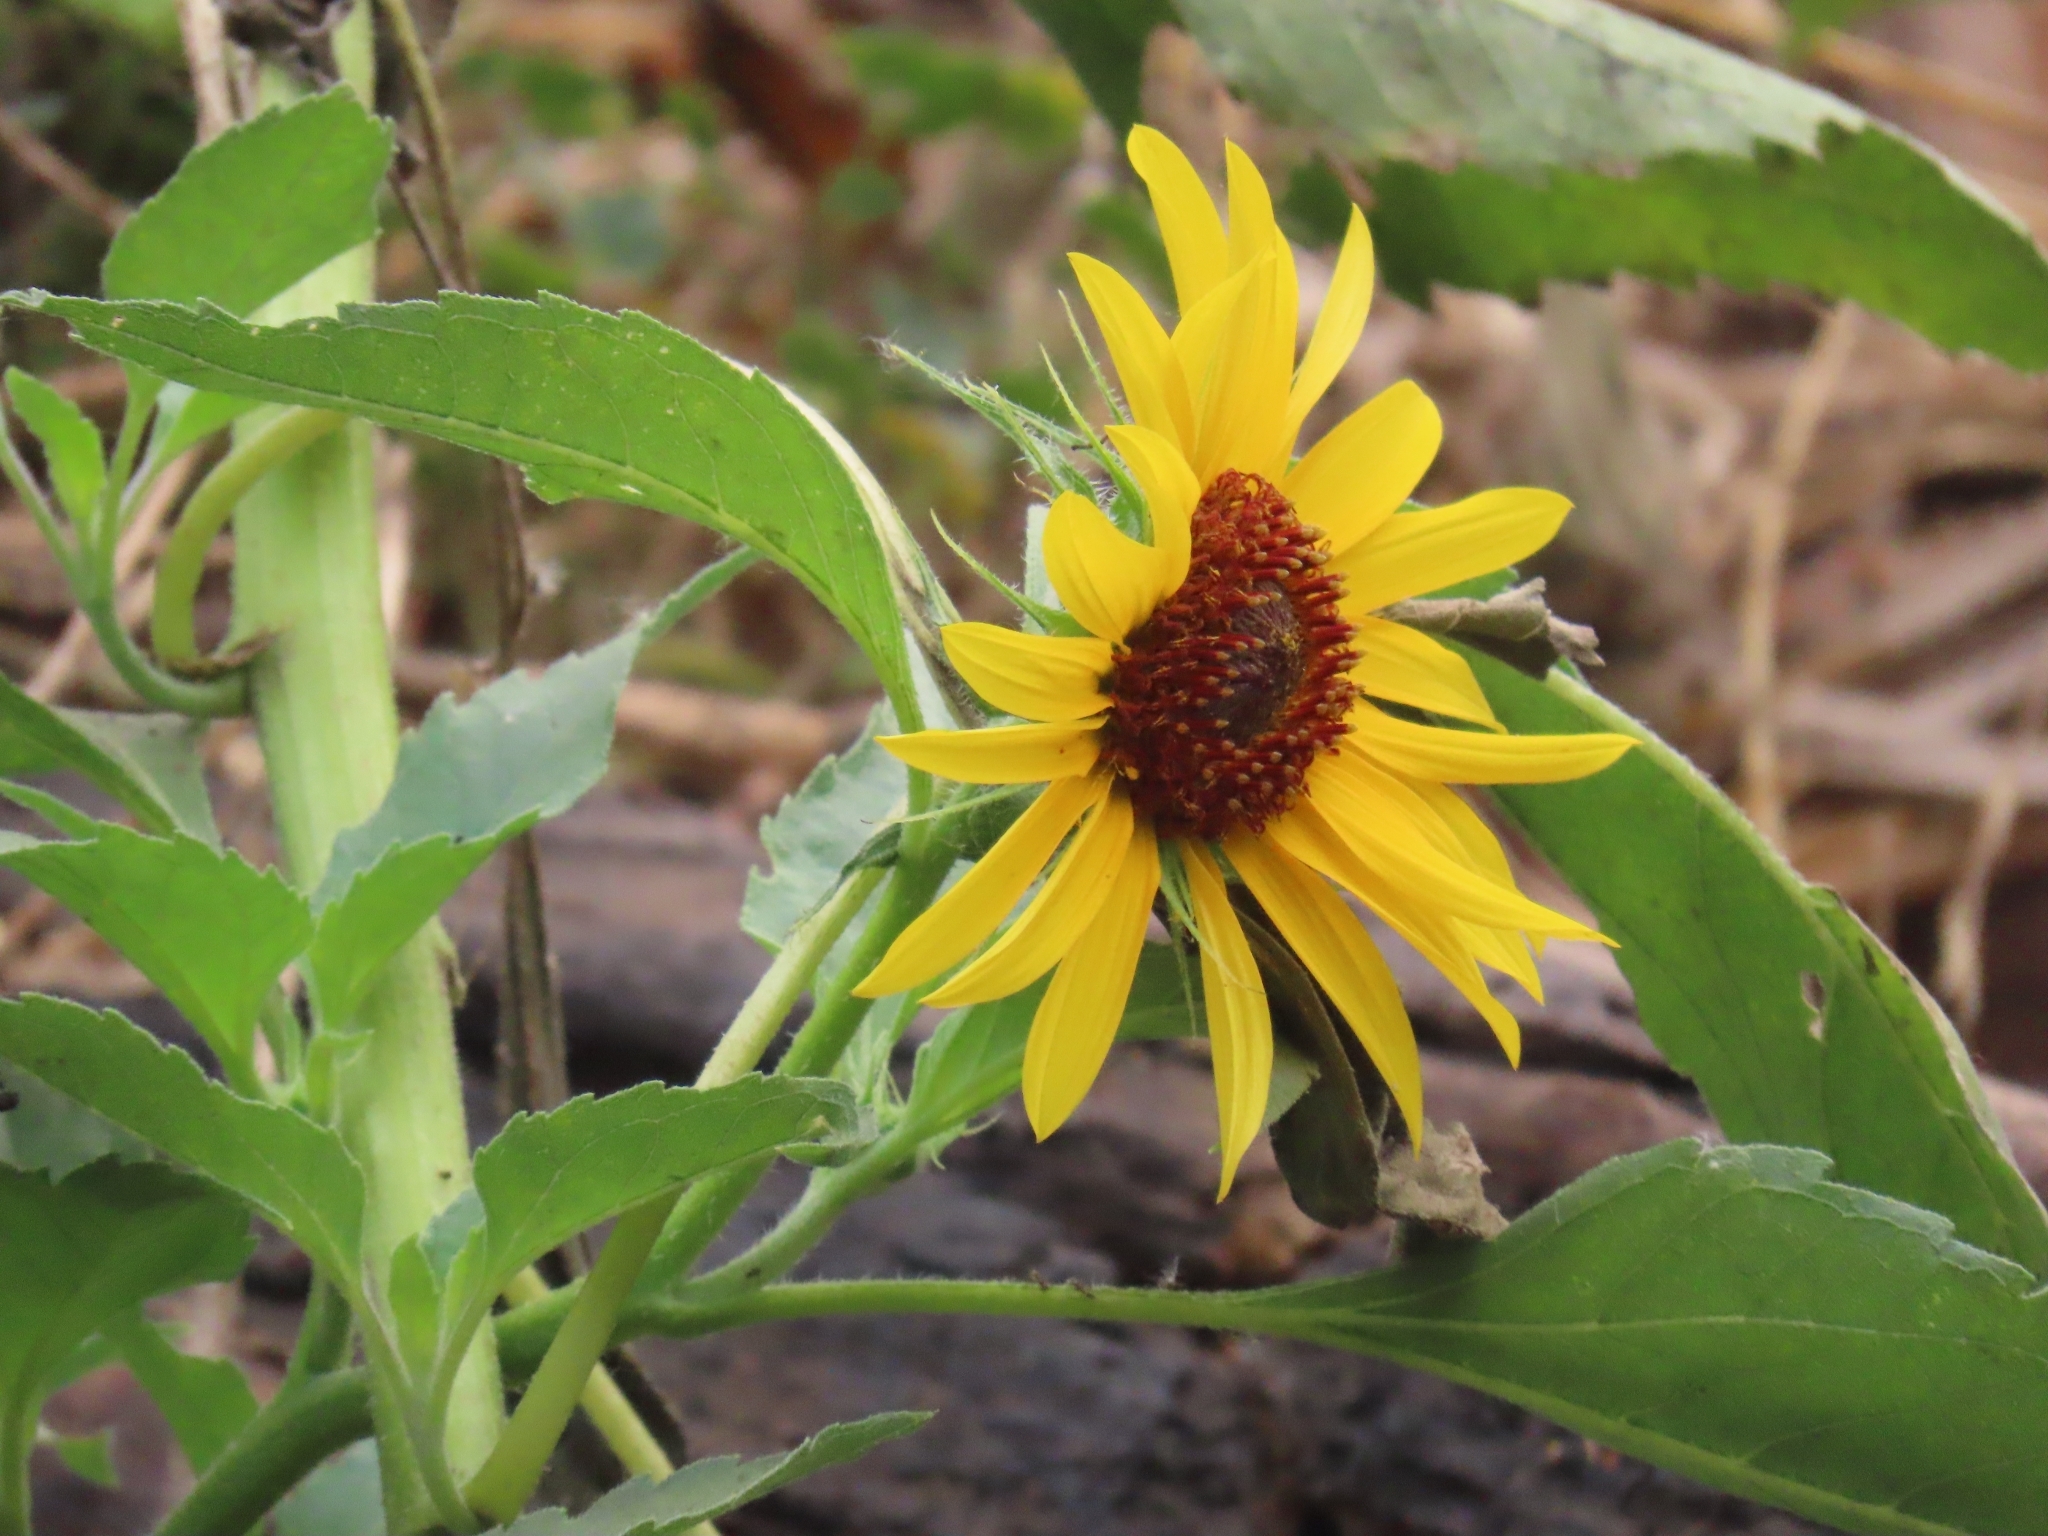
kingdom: Plantae
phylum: Tracheophyta
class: Magnoliopsida
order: Asterales
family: Asteraceae
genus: Helianthus
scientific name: Helianthus annuus
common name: Sunflower
